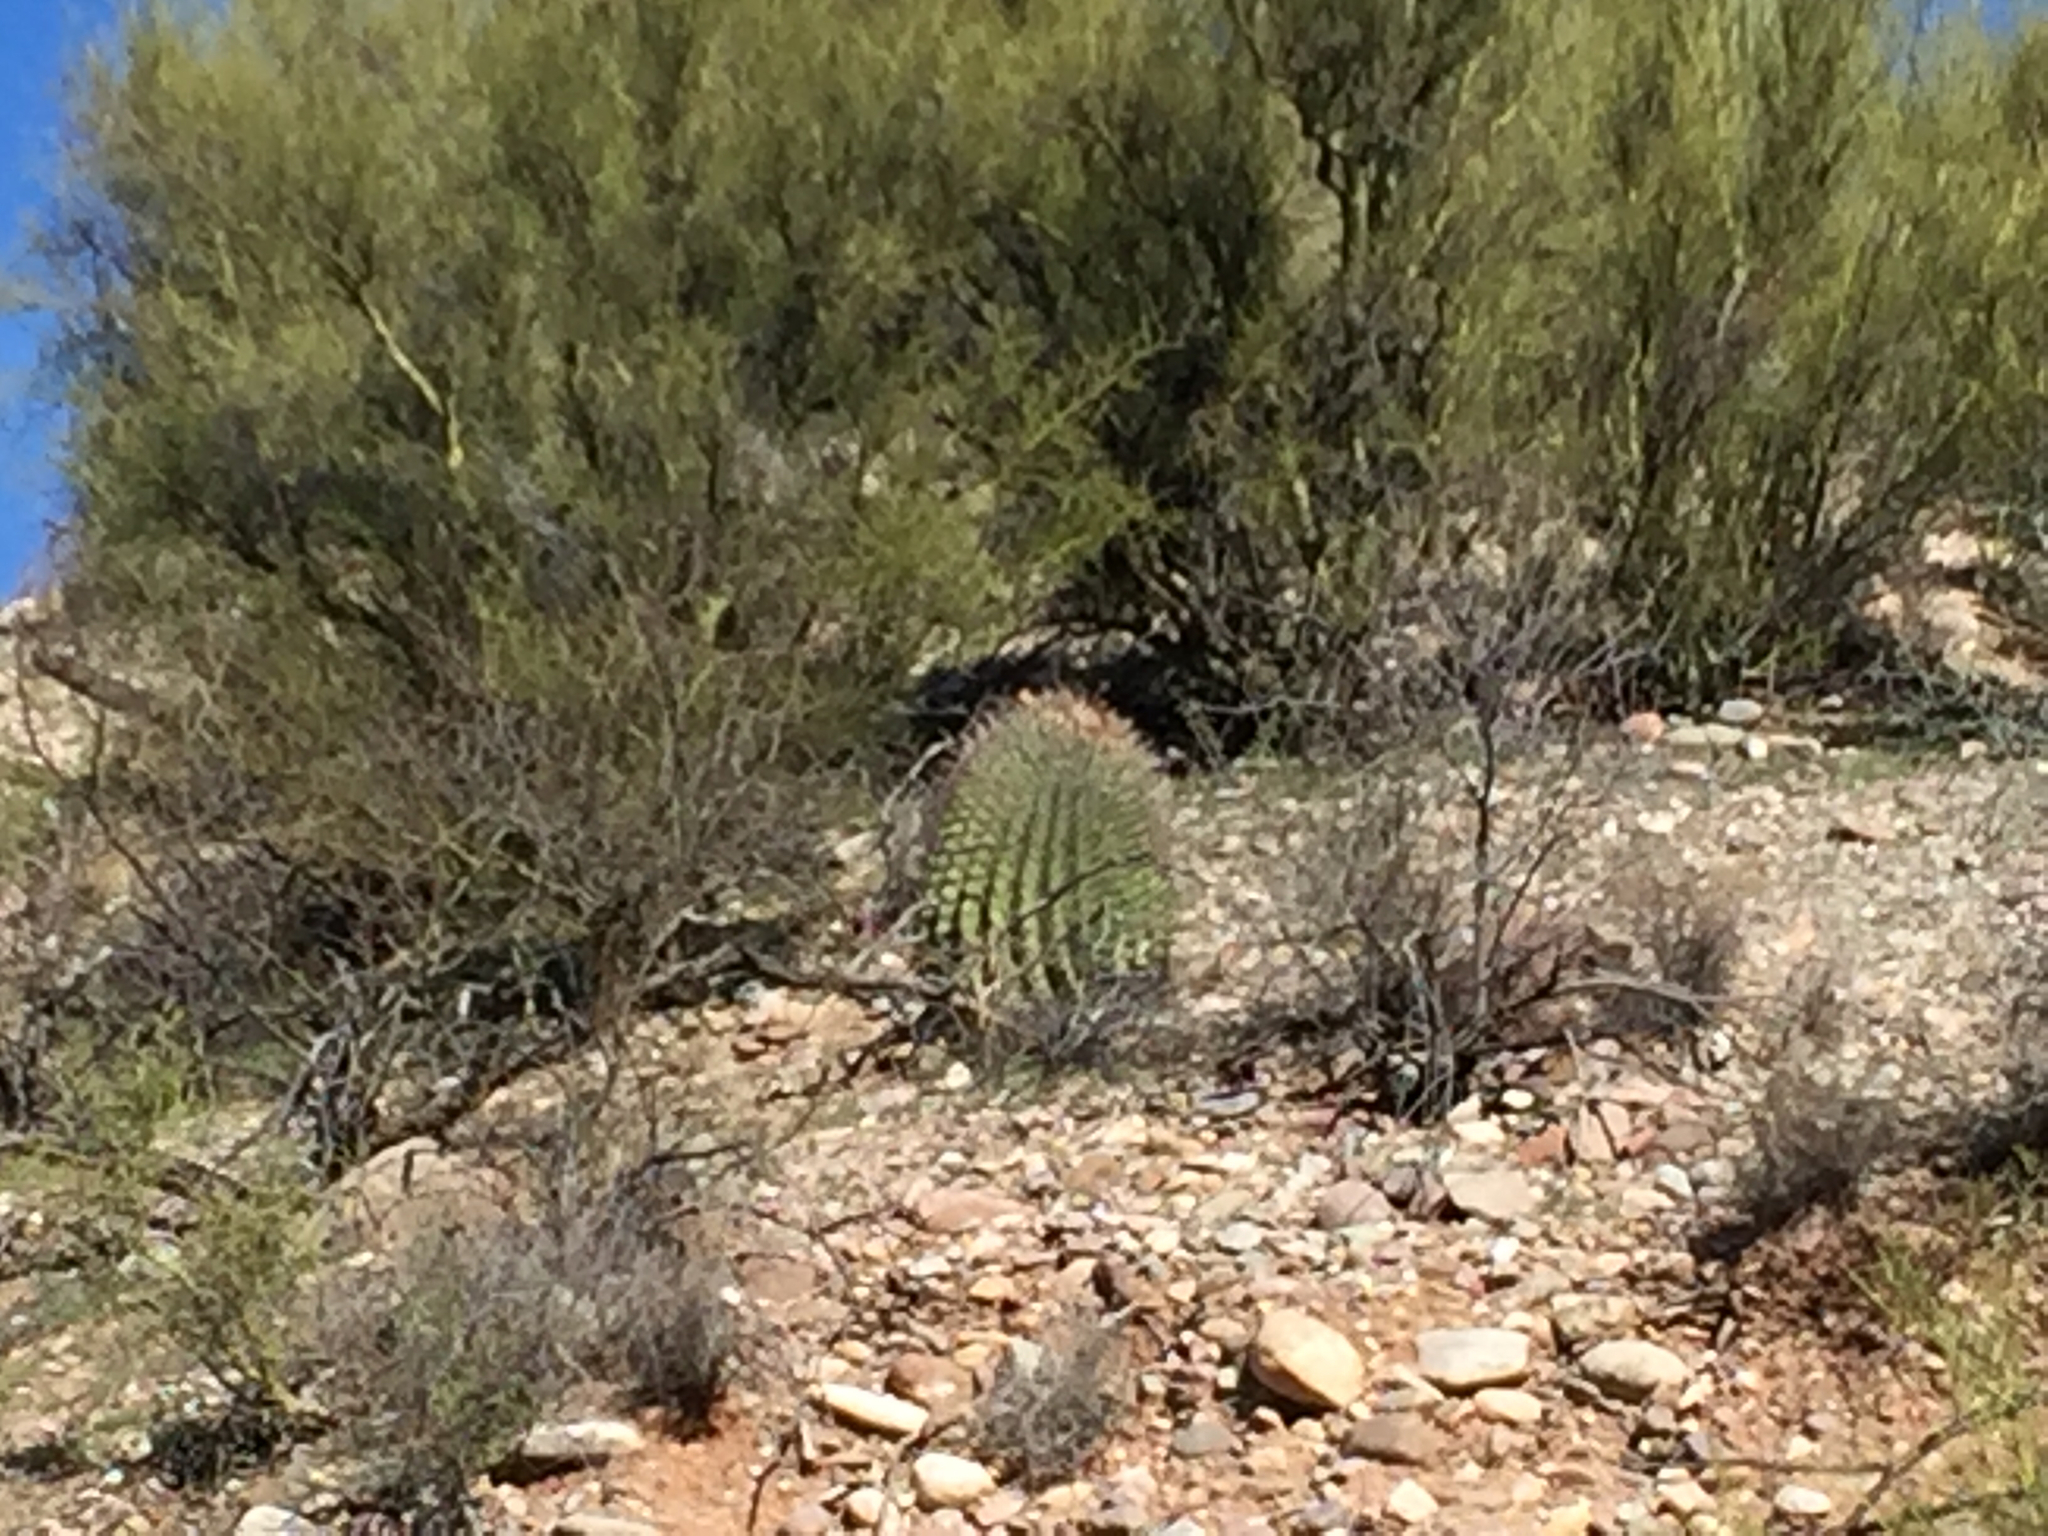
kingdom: Plantae
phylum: Tracheophyta
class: Magnoliopsida
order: Caryophyllales
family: Cactaceae
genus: Ferocactus
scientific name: Ferocactus wislizeni
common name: Candy barrel cactus
